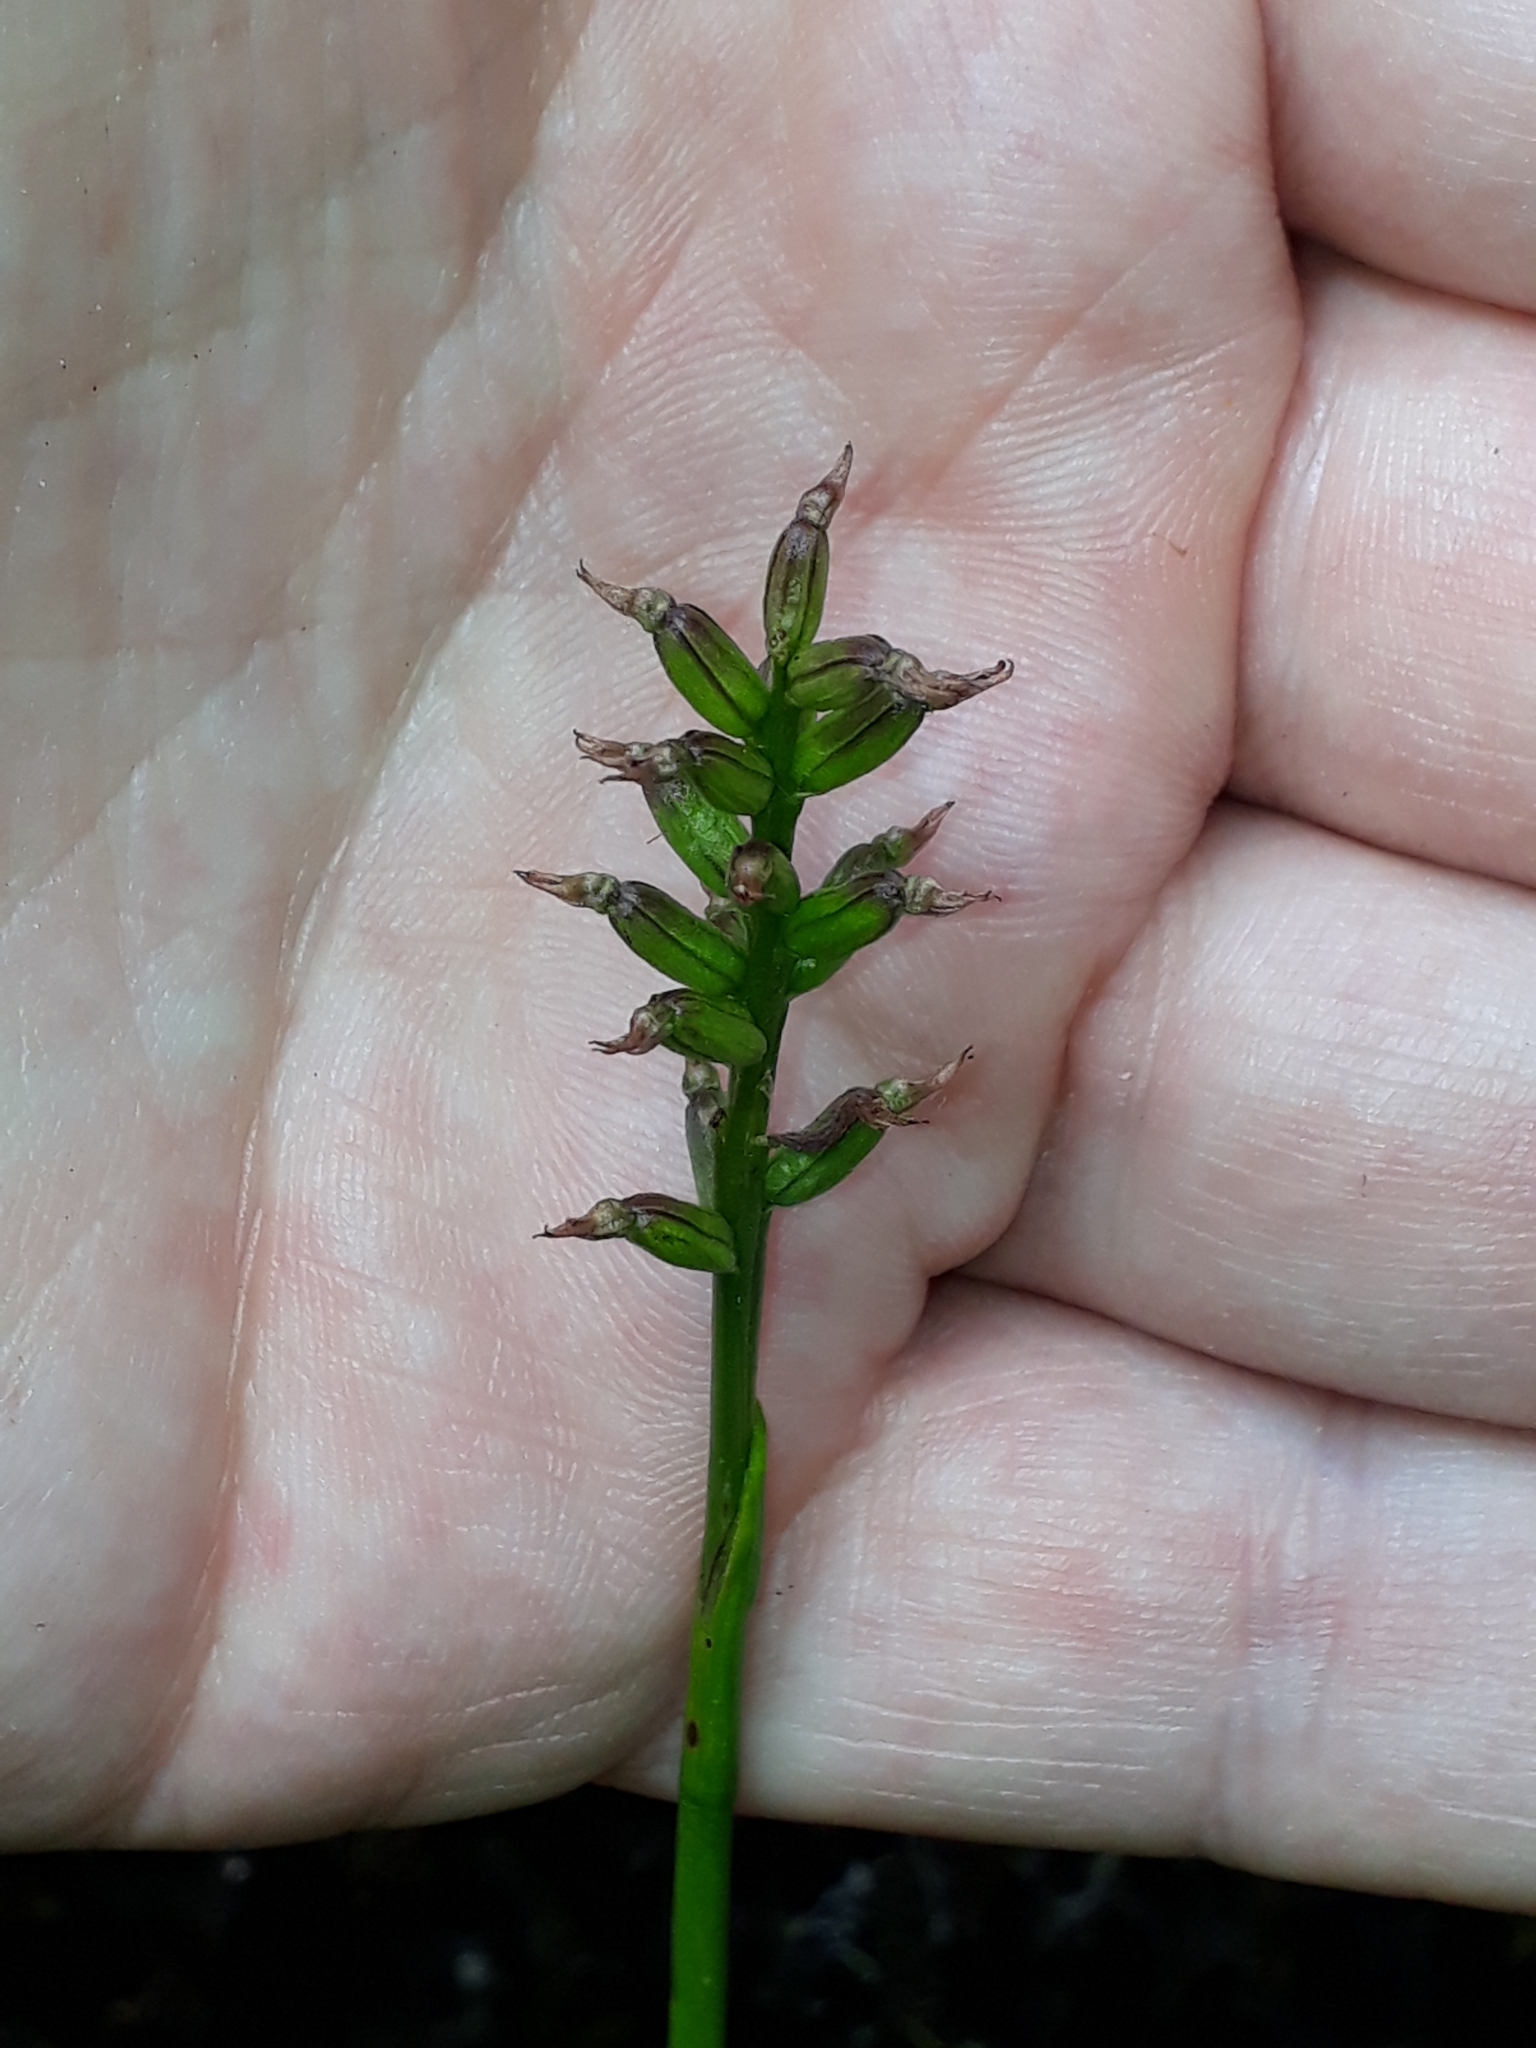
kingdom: Plantae
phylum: Tracheophyta
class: Liliopsida
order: Asparagales
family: Orchidaceae
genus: Prasophyllum
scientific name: Prasophyllum colensoi
